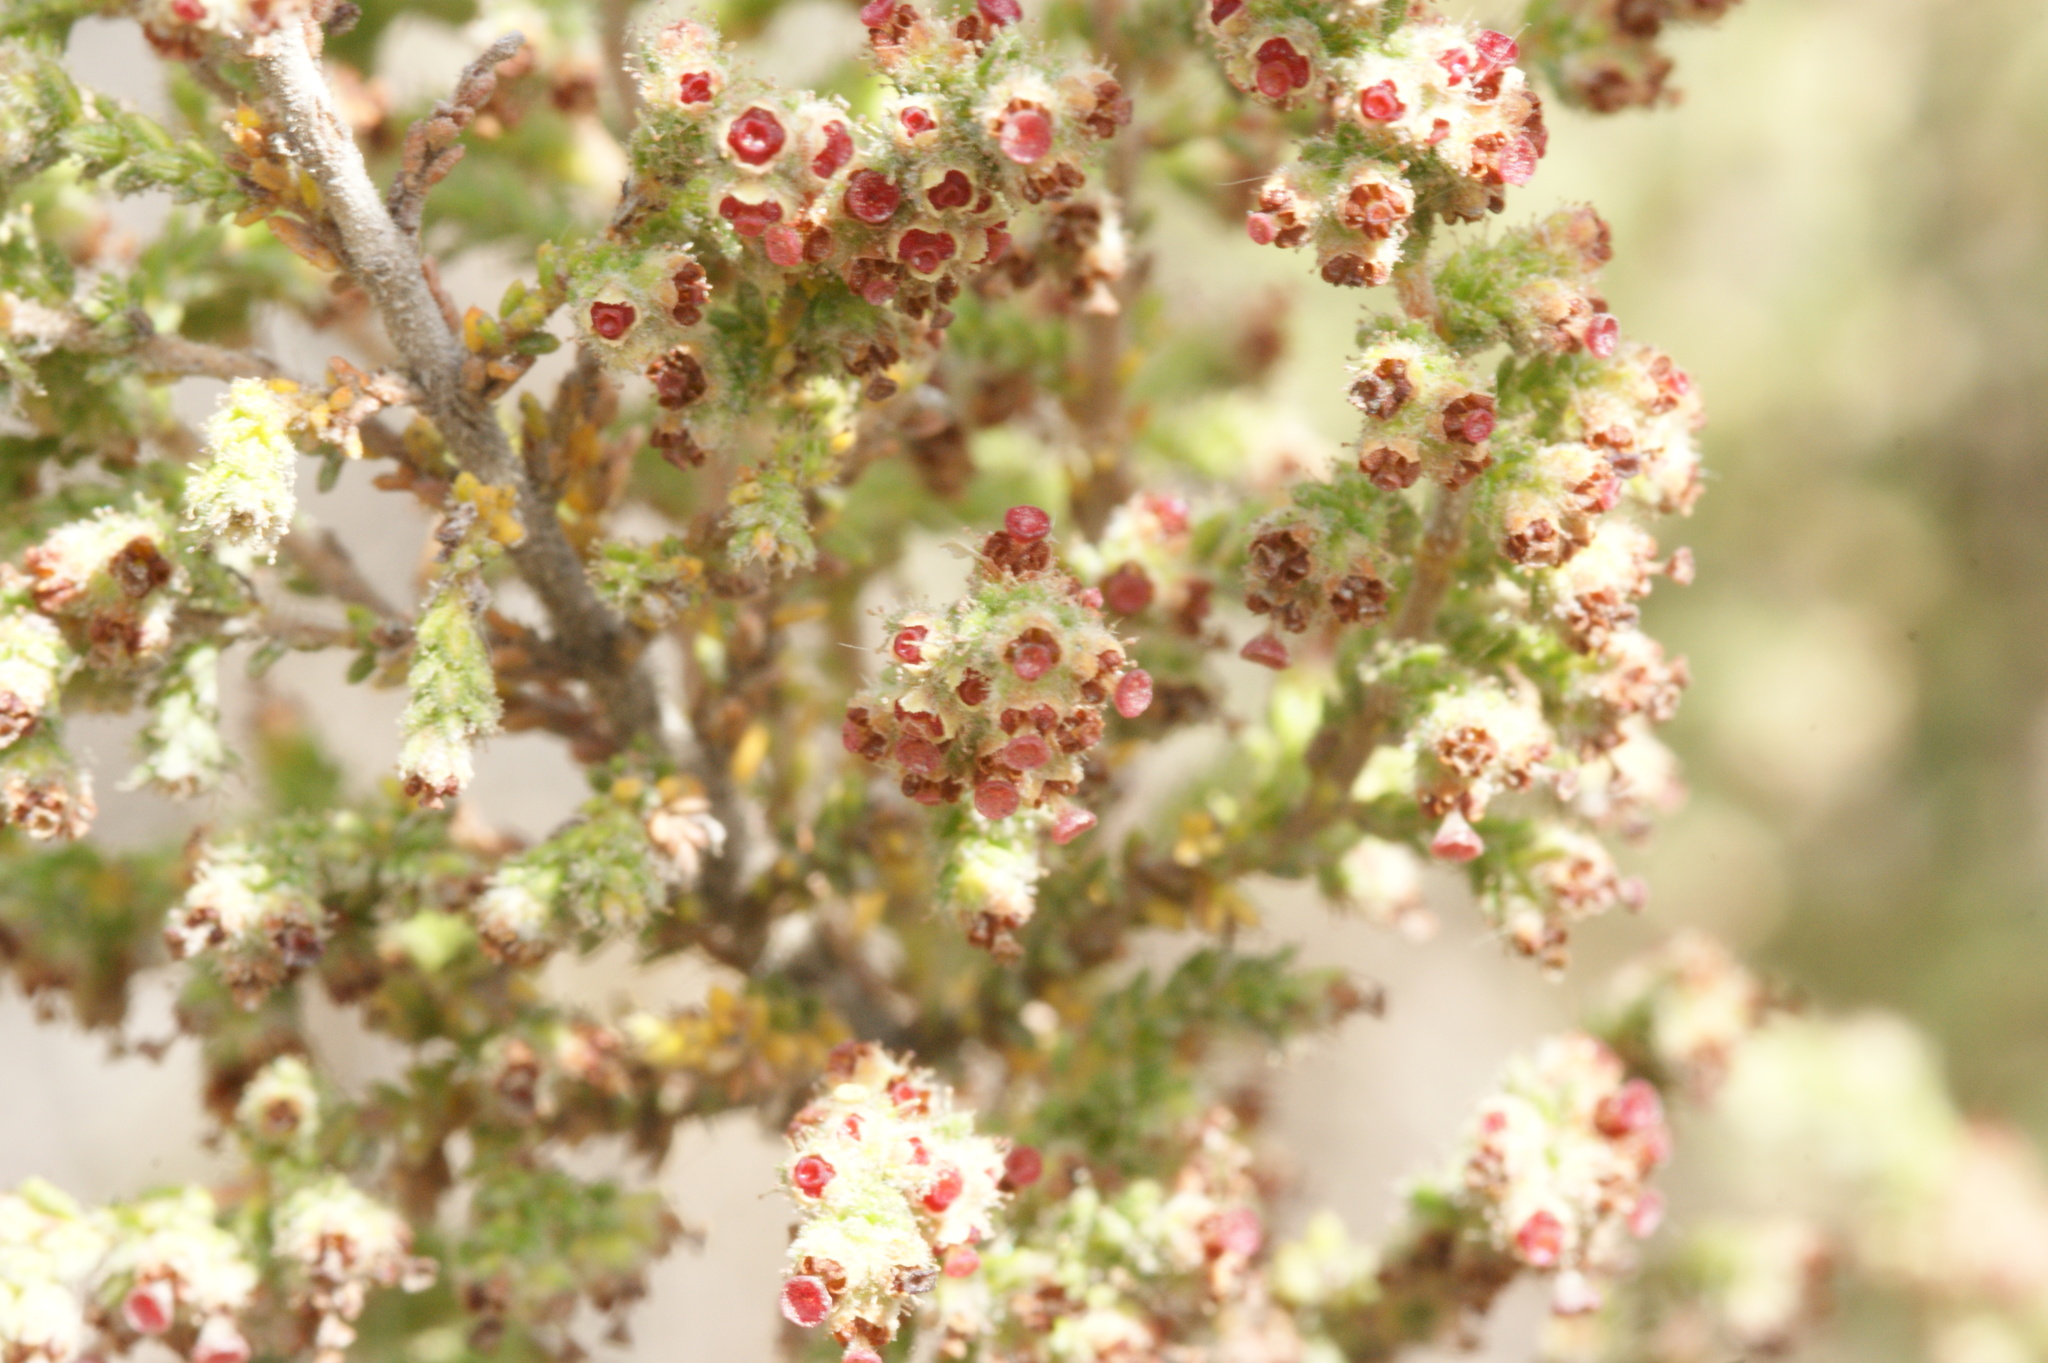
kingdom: Plantae
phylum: Tracheophyta
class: Magnoliopsida
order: Ericales
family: Ericaceae
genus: Erica
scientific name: Erica rigidula
